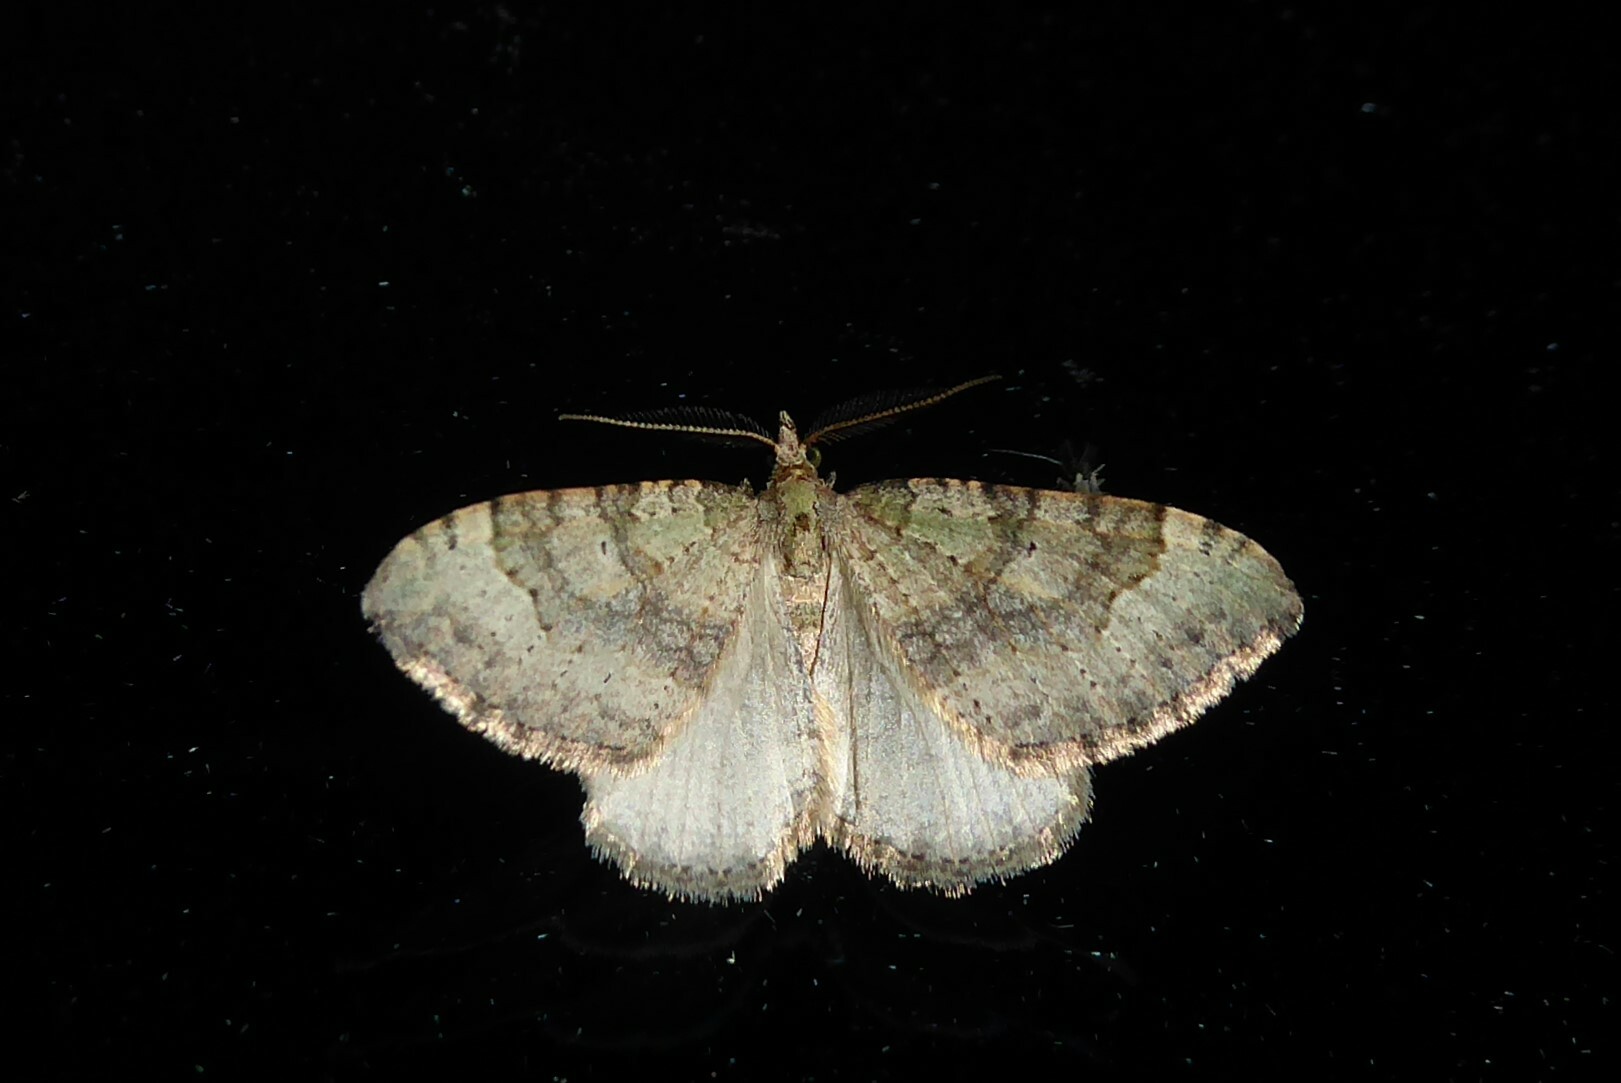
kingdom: Animalia
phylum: Arthropoda
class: Insecta
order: Lepidoptera
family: Geometridae
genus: Epyaxa
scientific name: Epyaxa rosearia
